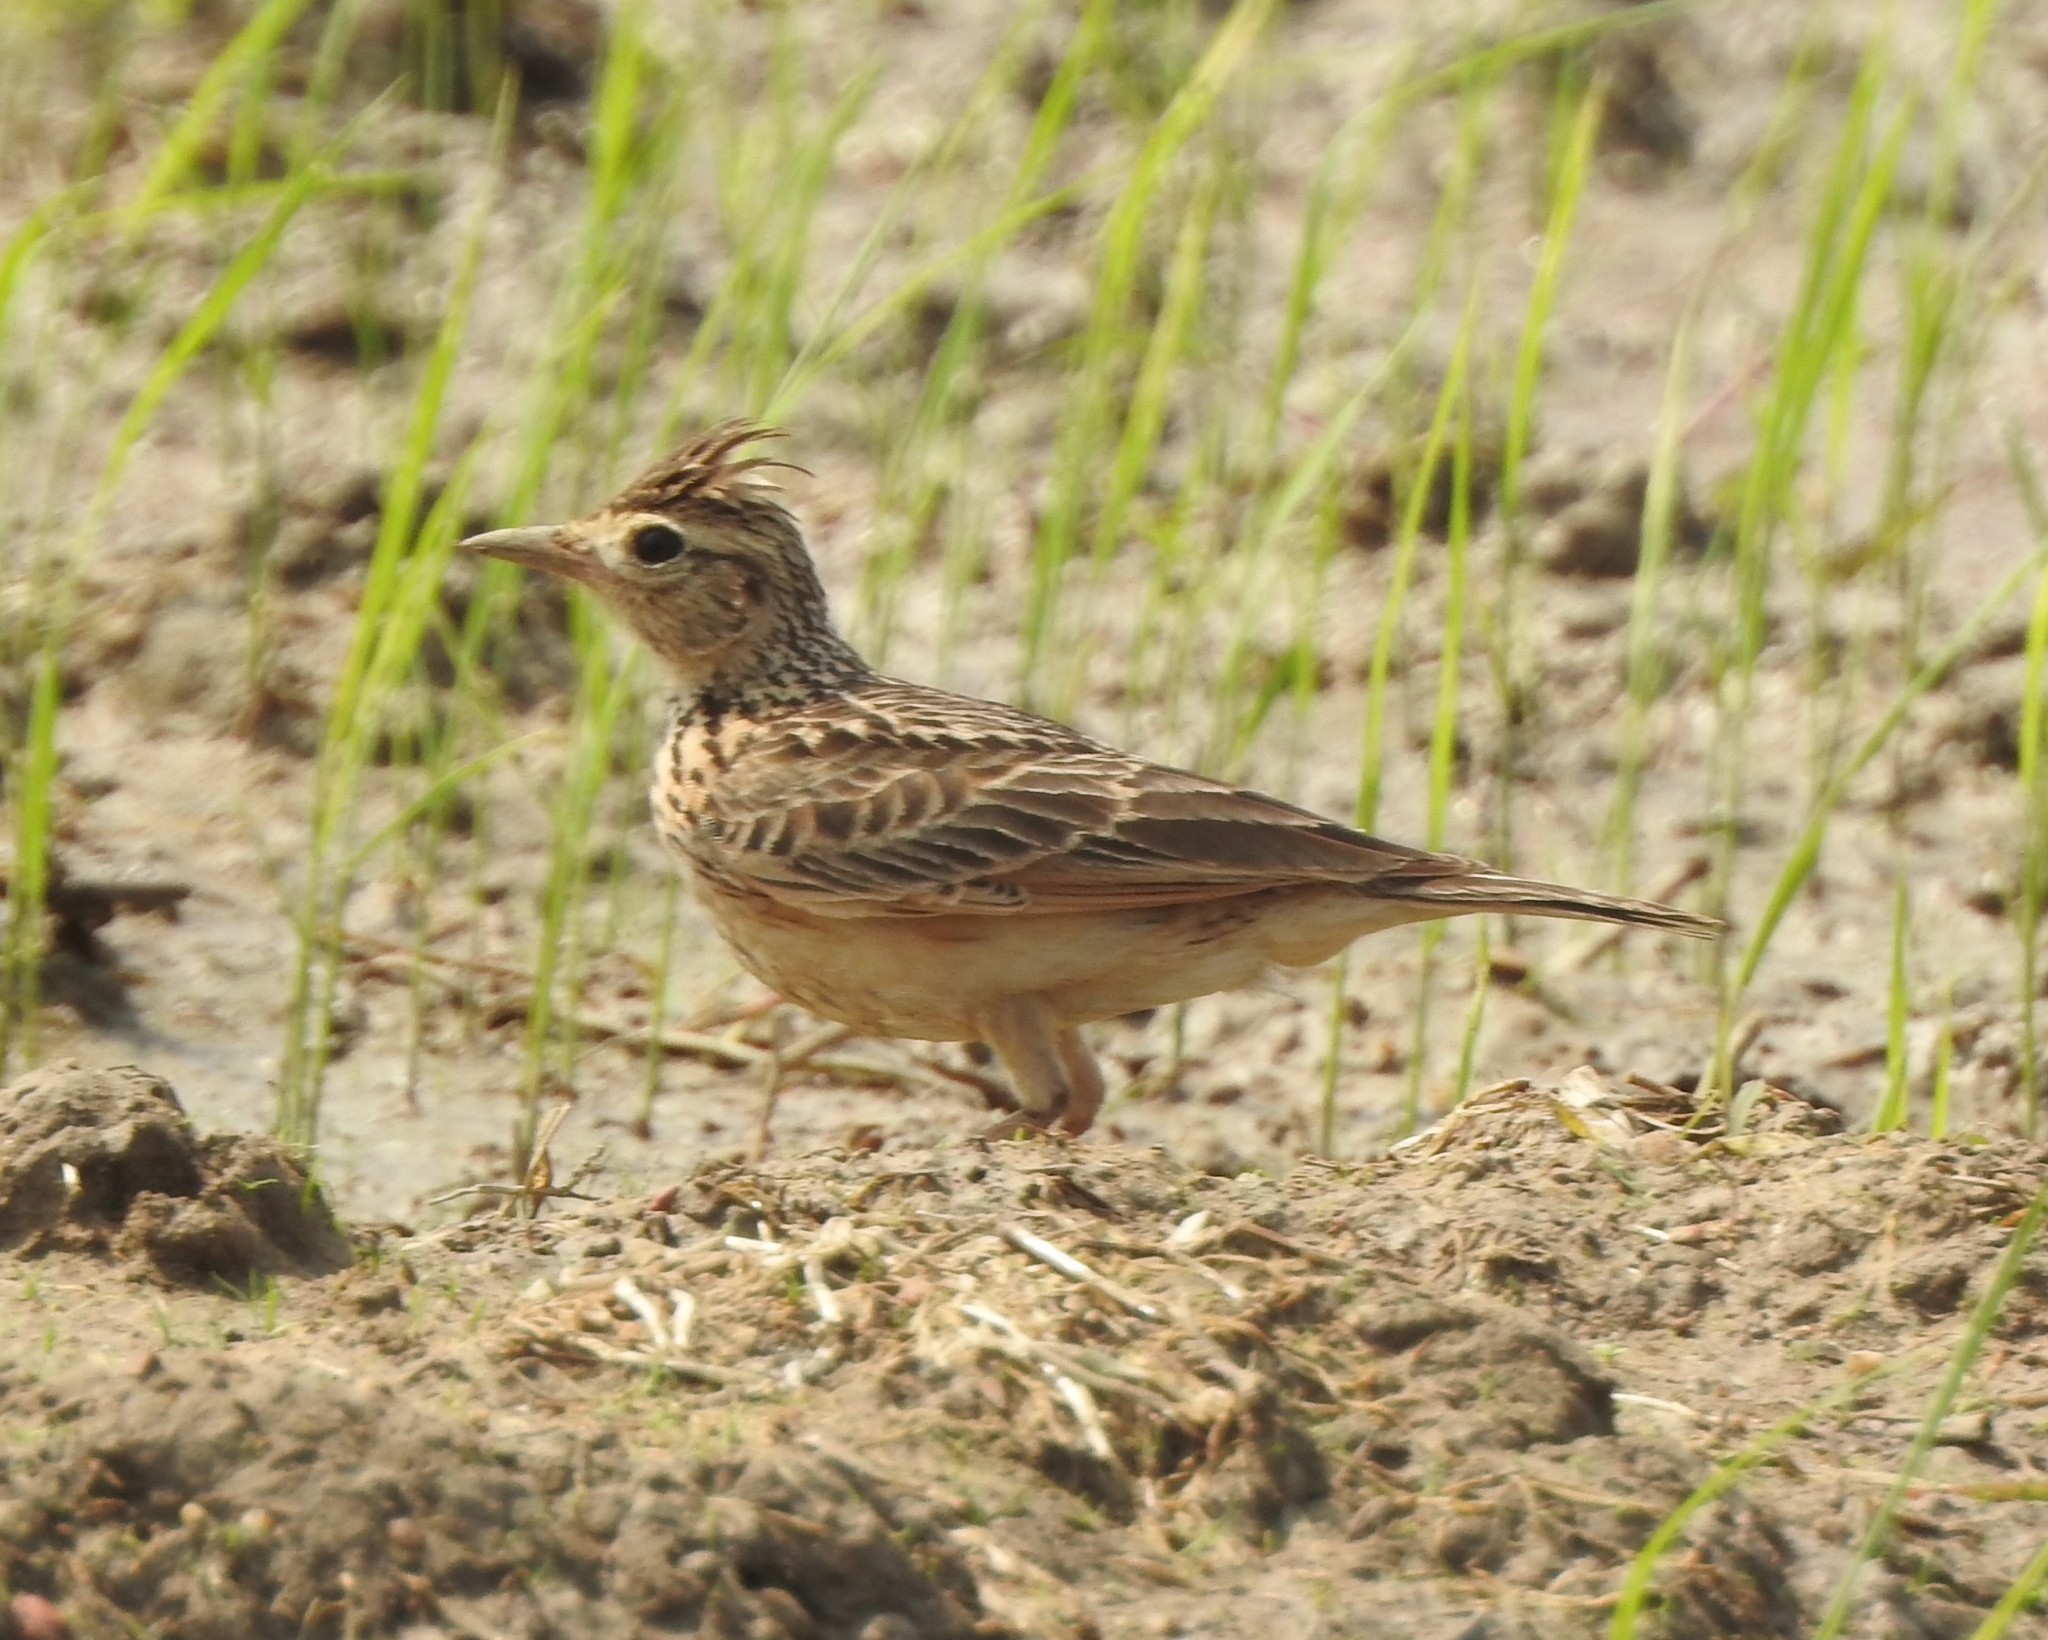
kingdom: Animalia
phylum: Chordata
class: Aves
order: Passeriformes
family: Alaudidae
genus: Alauda
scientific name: Alauda gulgula
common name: Oriental skylark
